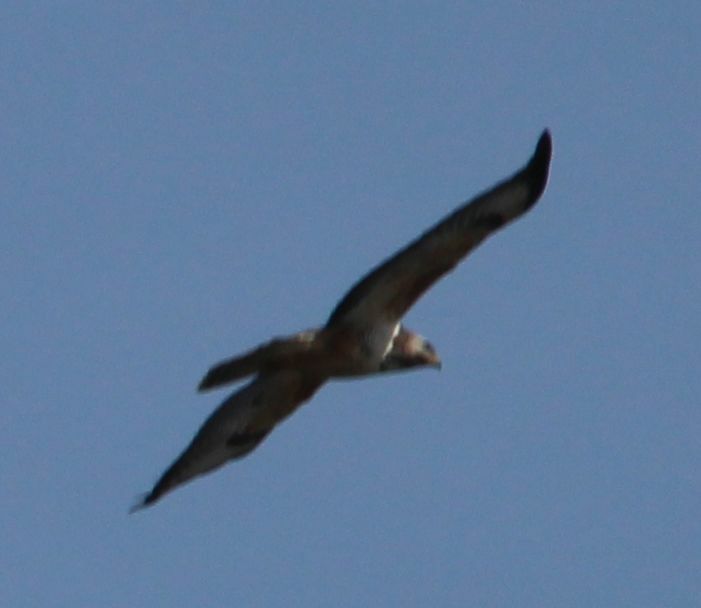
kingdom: Animalia
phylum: Chordata
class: Aves
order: Accipitriformes
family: Accipitridae
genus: Buteo
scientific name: Buteo buteo
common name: Common buzzard
